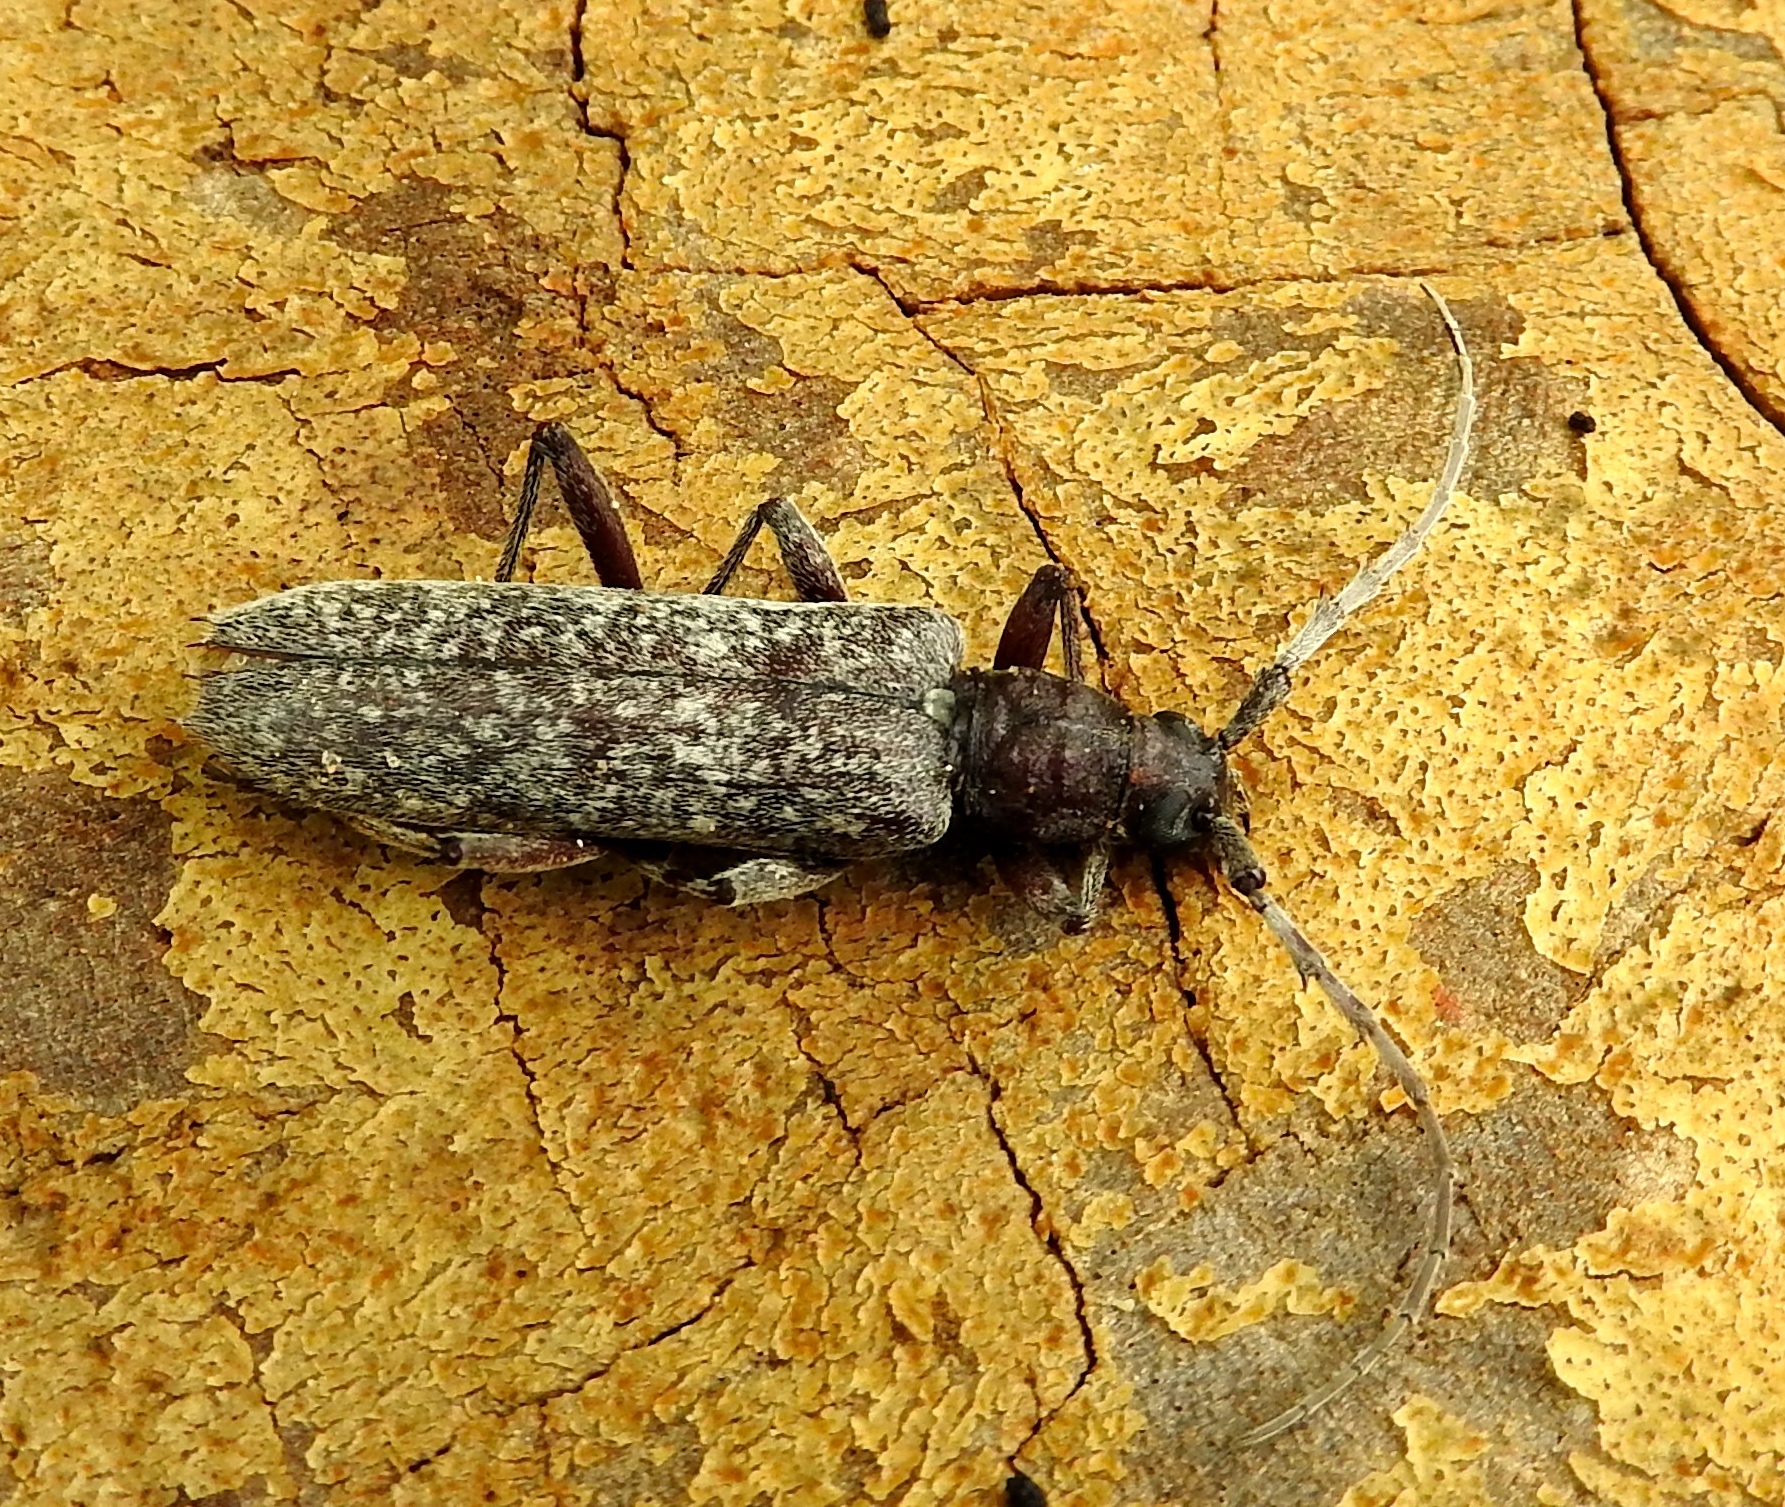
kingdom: Animalia
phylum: Arthropoda
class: Insecta
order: Coleoptera
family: Cerambycidae
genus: Aneflus
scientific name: Aneflus
